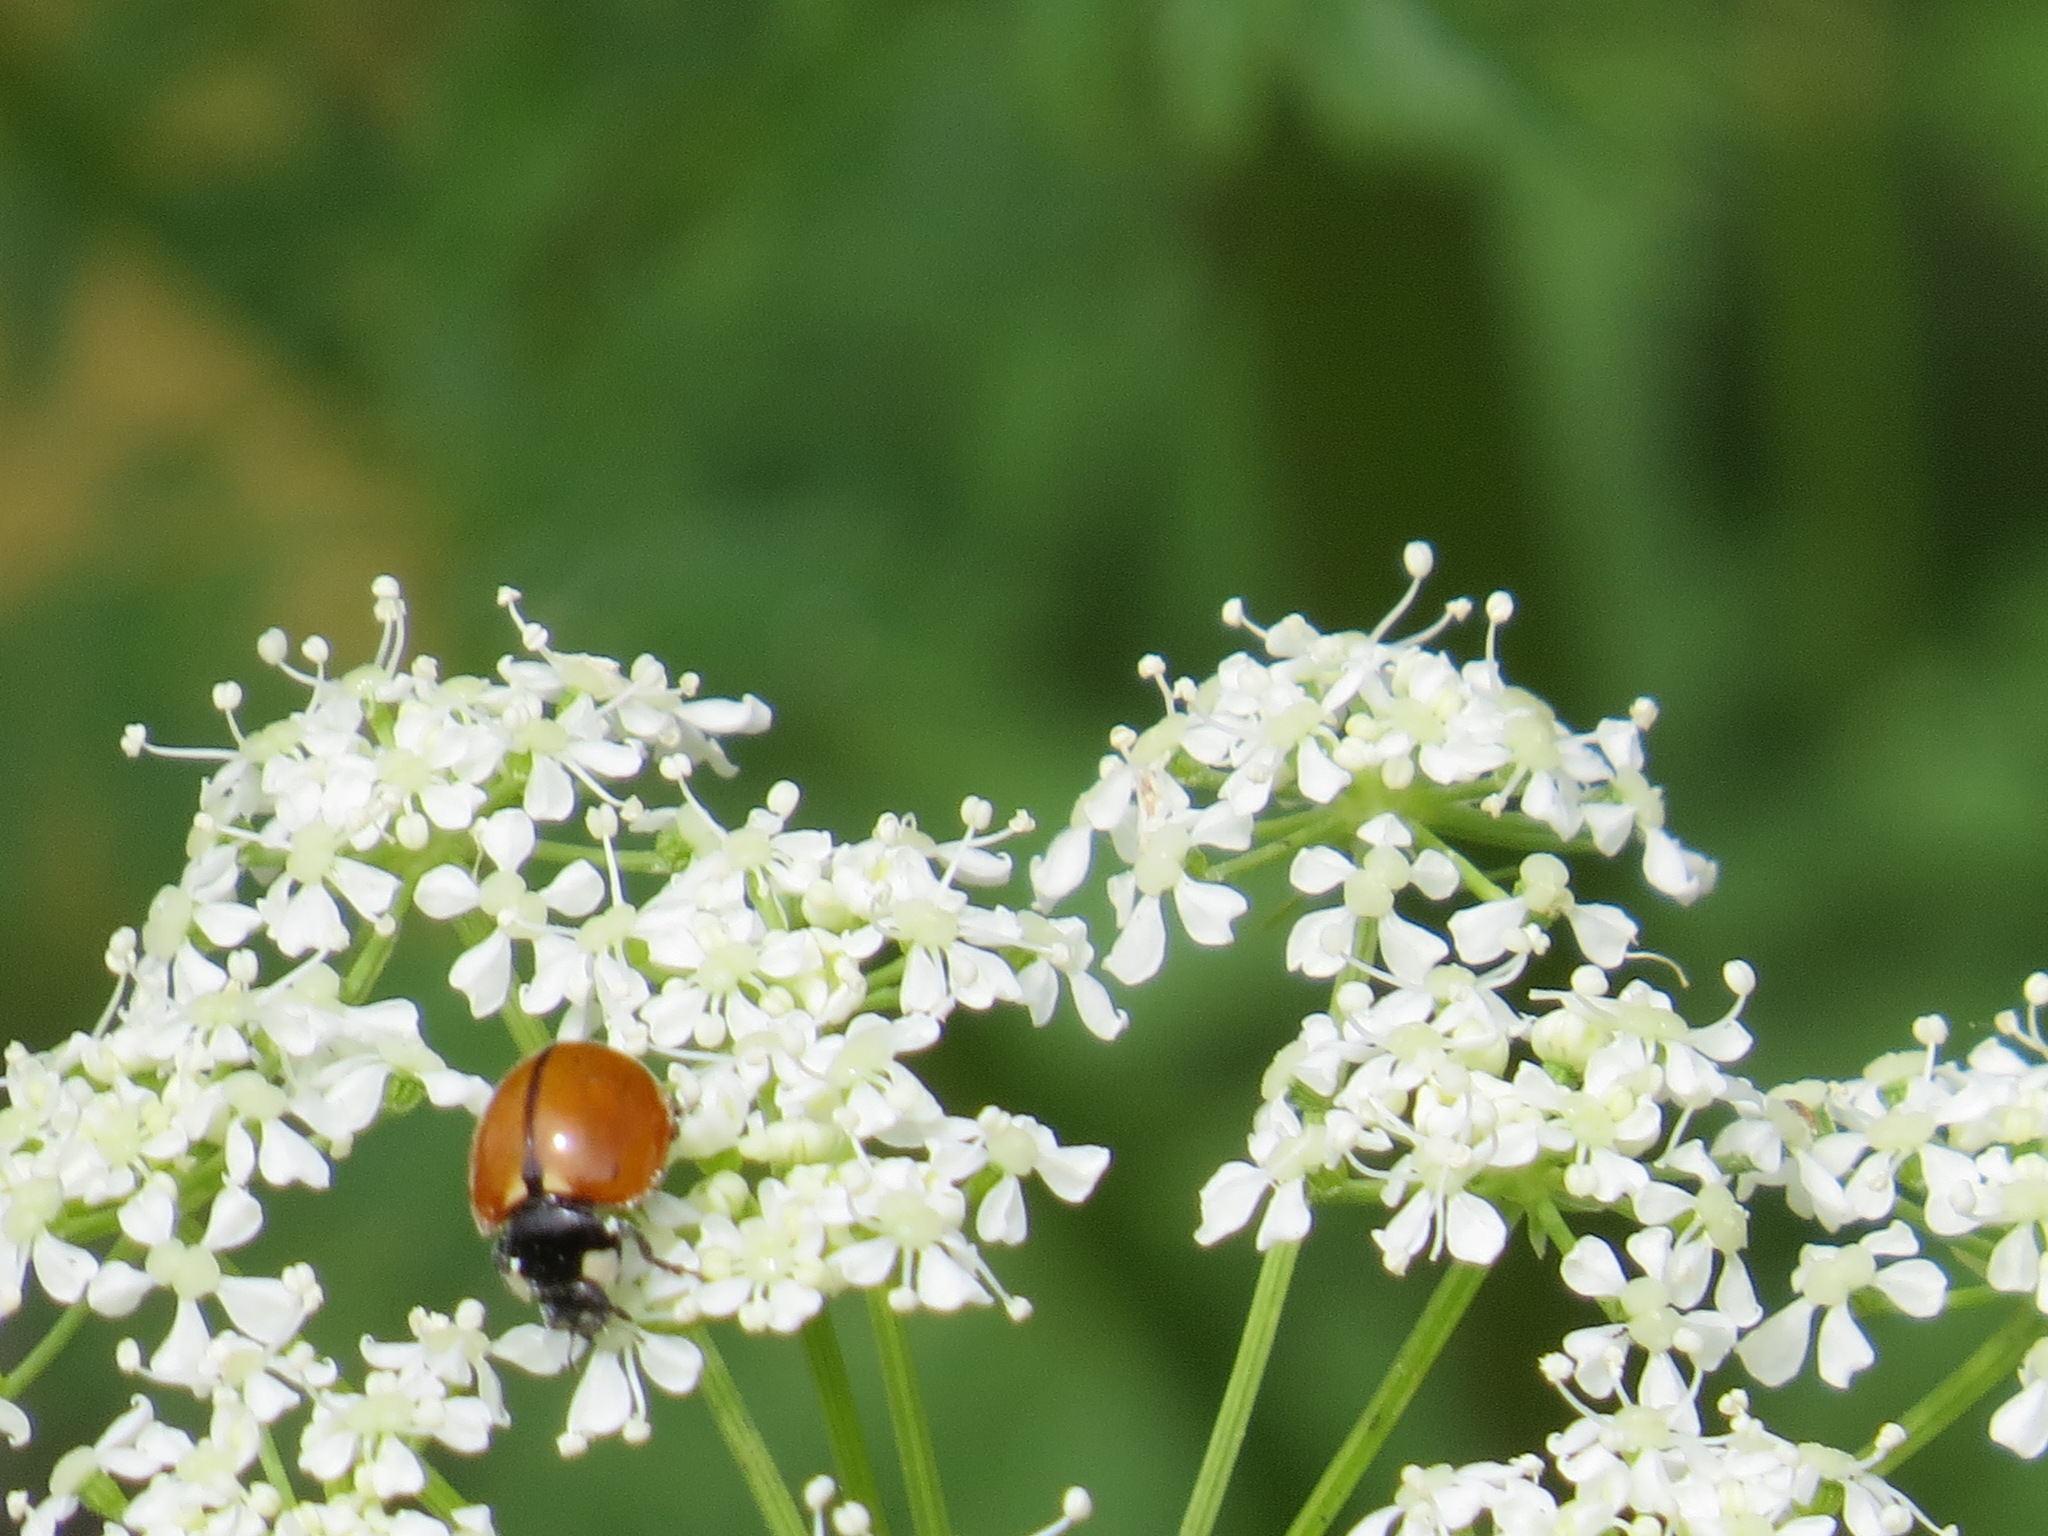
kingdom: Animalia
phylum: Arthropoda
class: Insecta
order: Coleoptera
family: Coccinellidae
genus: Coccinella
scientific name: Coccinella californica
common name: Lady beetle
